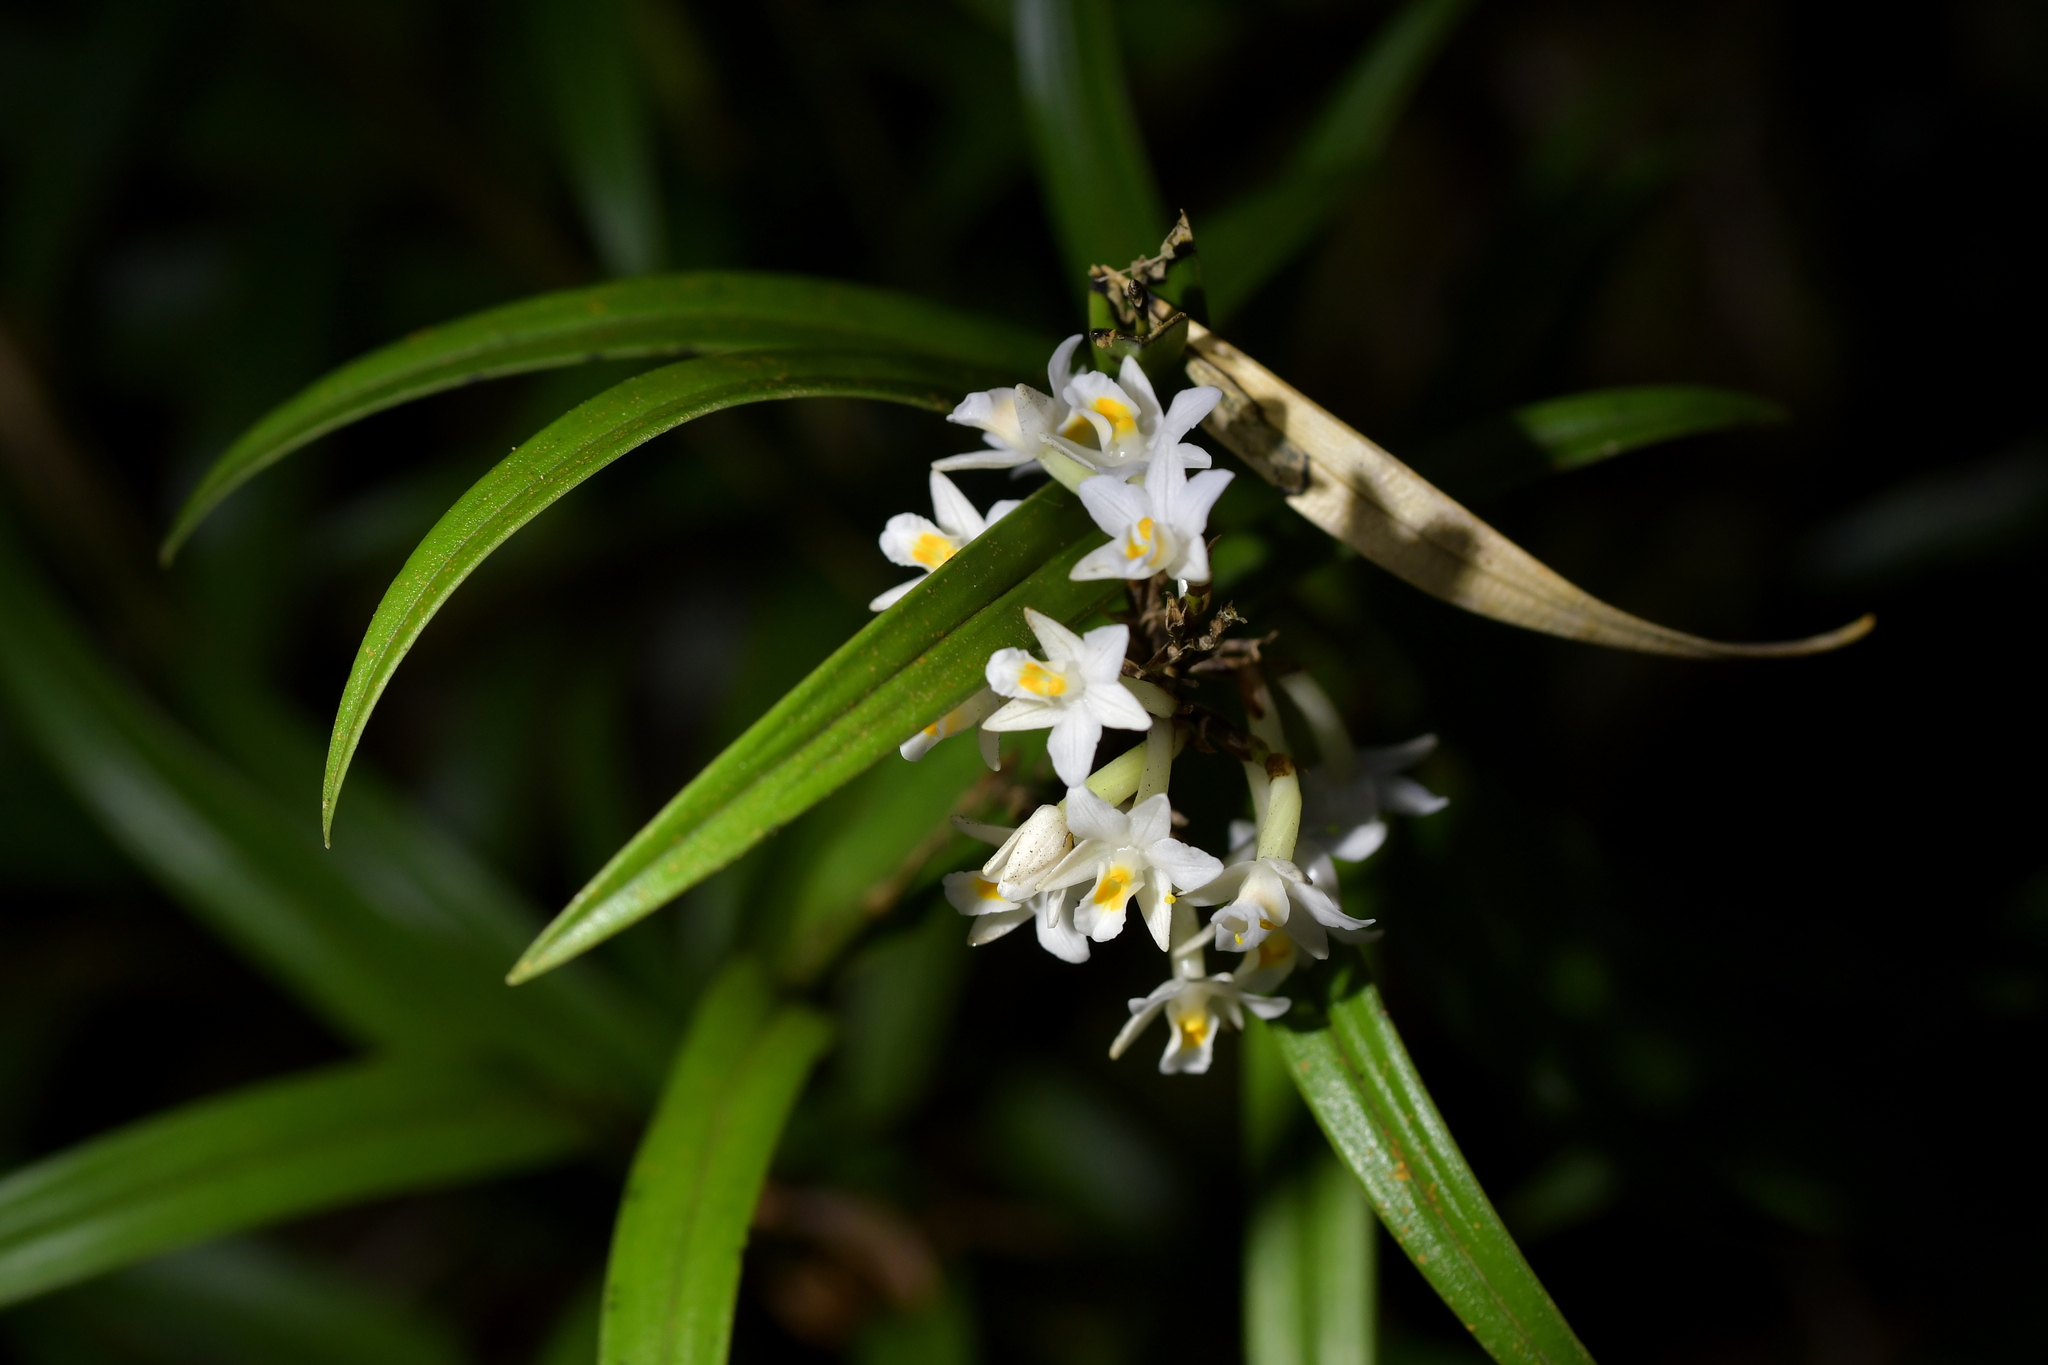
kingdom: Plantae
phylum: Tracheophyta
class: Liliopsida
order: Asparagales
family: Orchidaceae
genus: Earina
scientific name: Earina autumnalis
